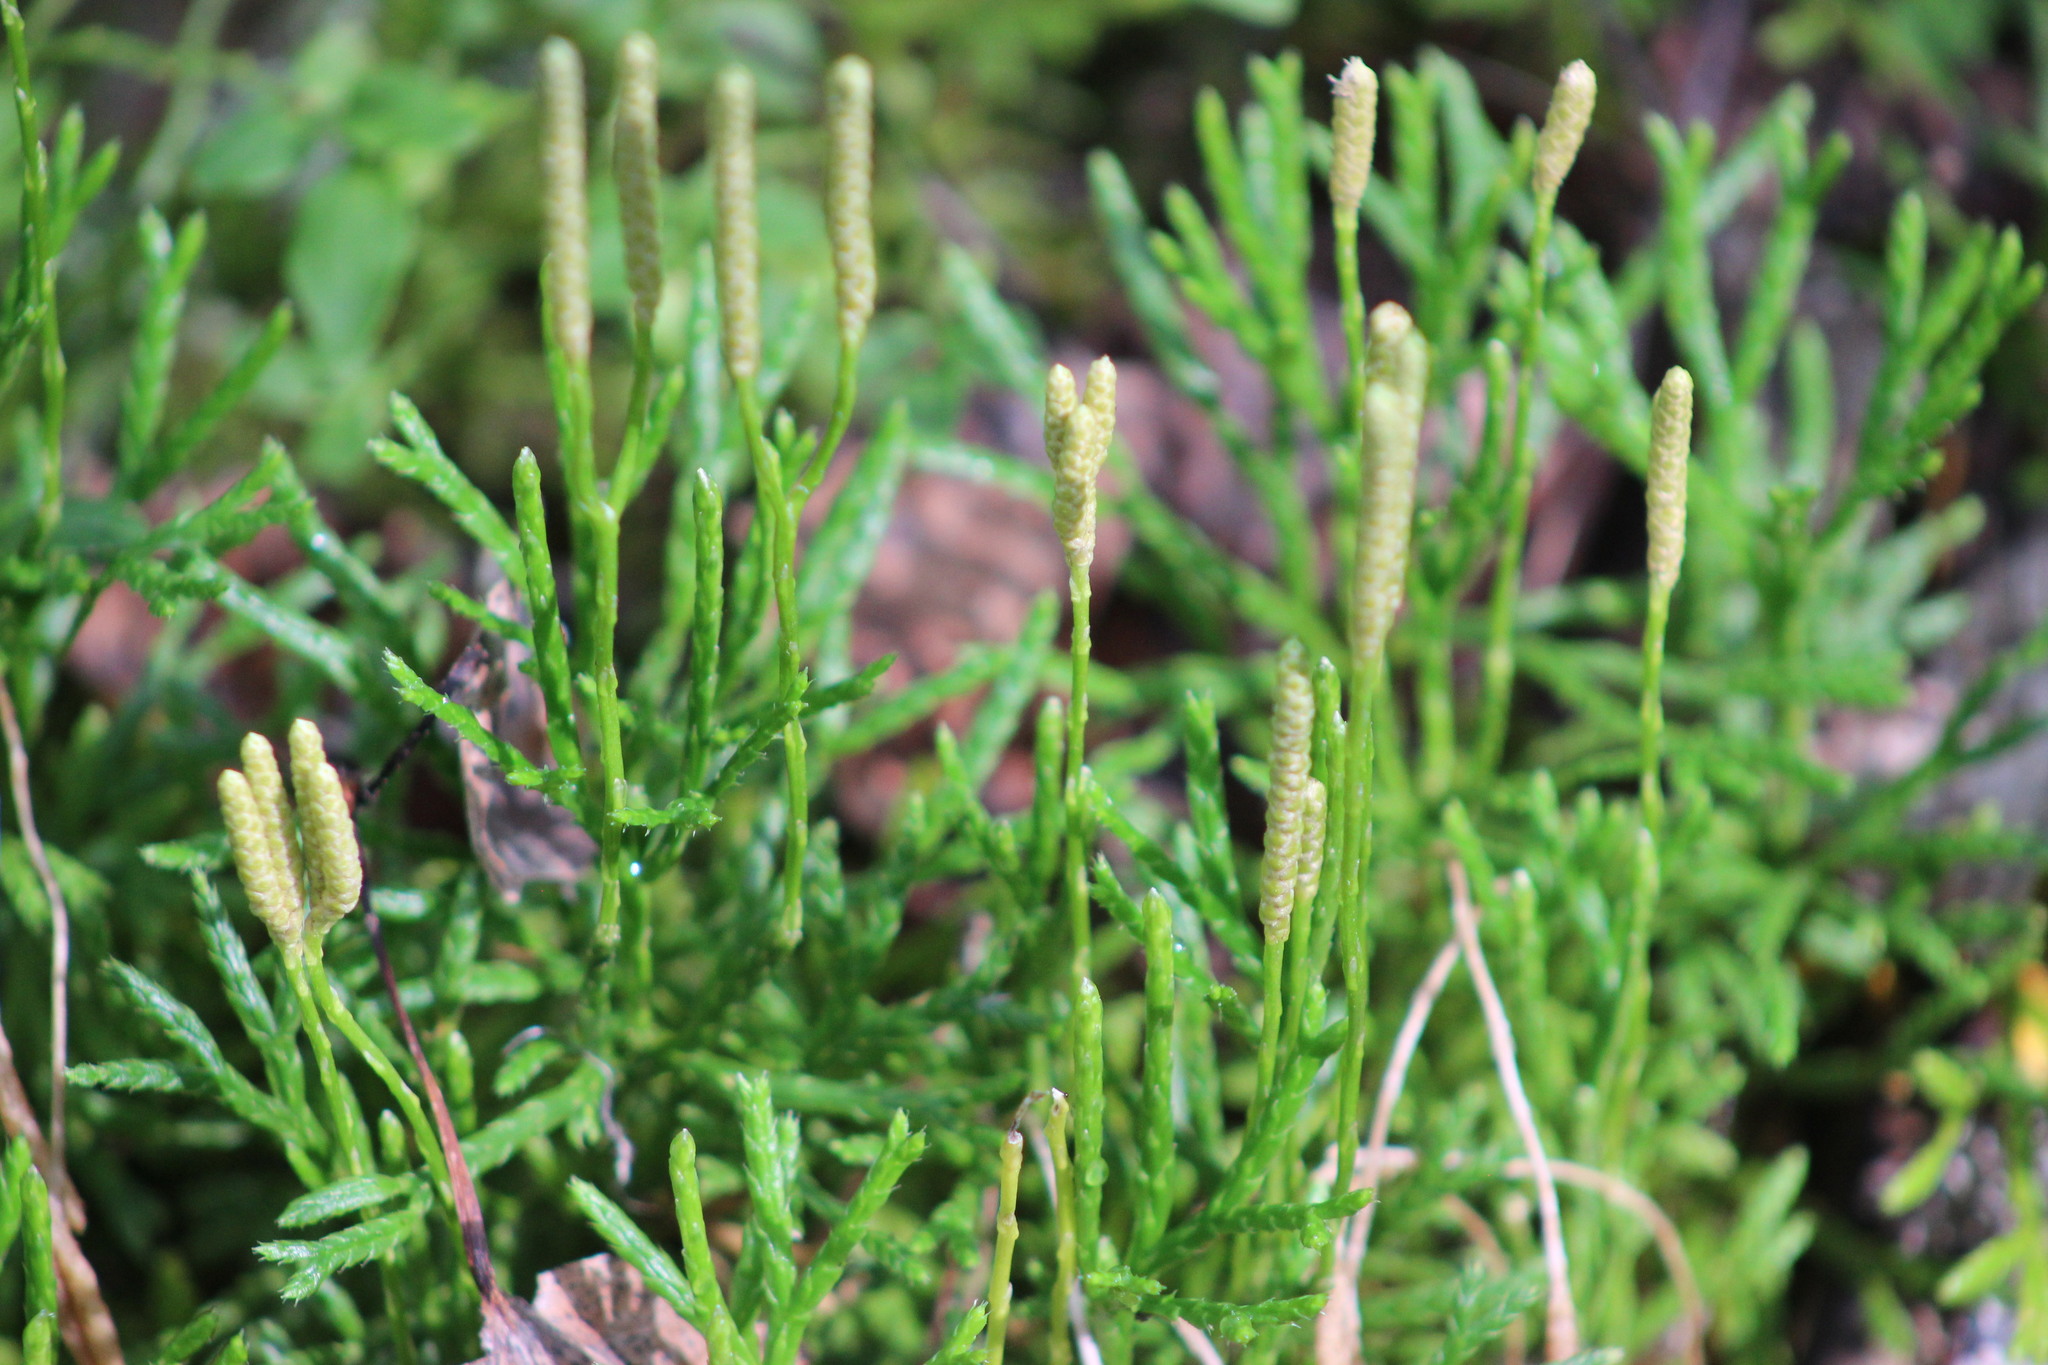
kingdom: Plantae
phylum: Tracheophyta
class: Lycopodiopsida
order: Lycopodiales
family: Lycopodiaceae
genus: Diphasiastrum
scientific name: Diphasiastrum complanatum
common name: Northern running-pine
